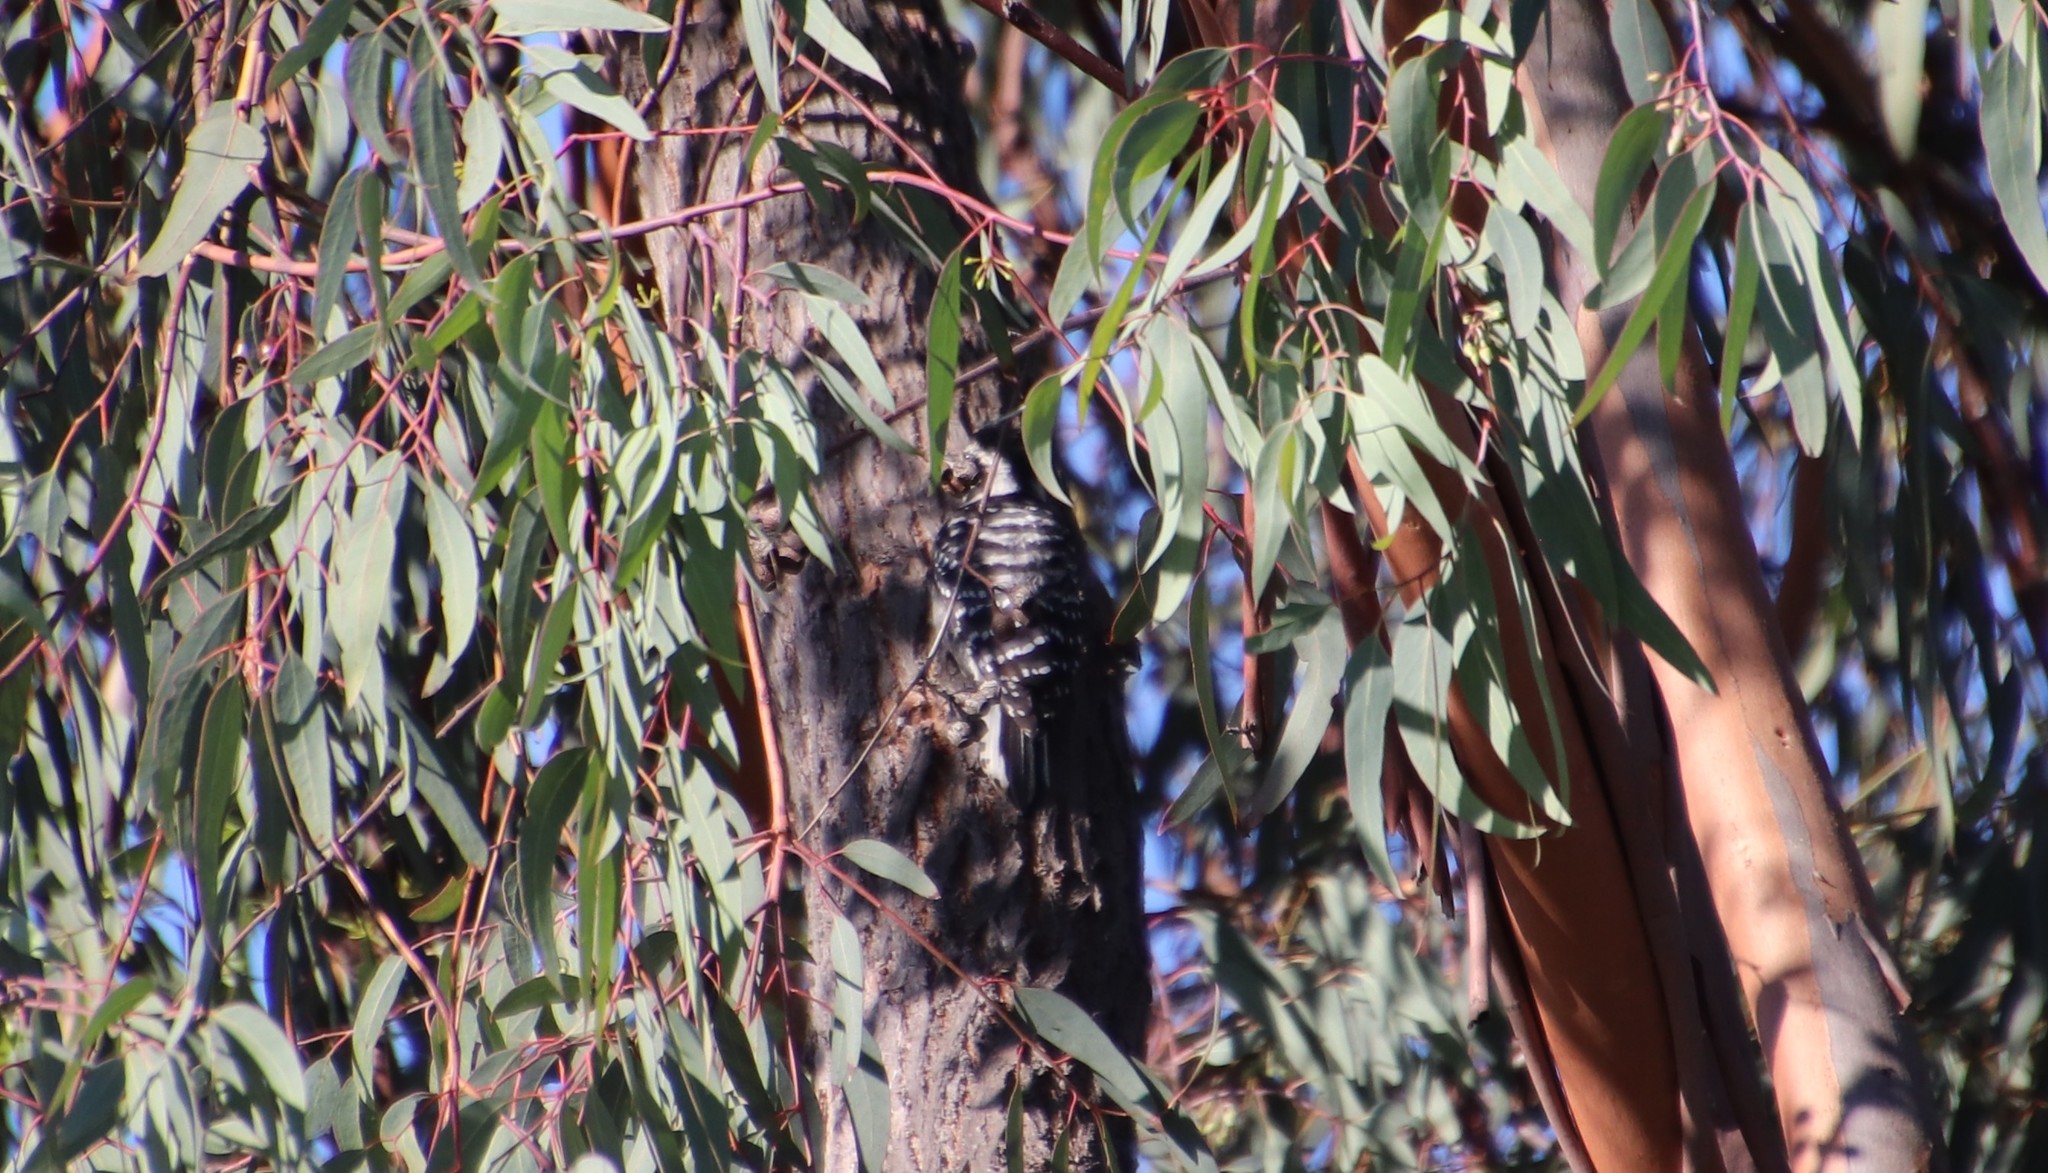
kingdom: Animalia
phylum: Chordata
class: Aves
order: Piciformes
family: Picidae
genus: Dryobates
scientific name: Dryobates nuttallii
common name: Nuttall's woodpecker
